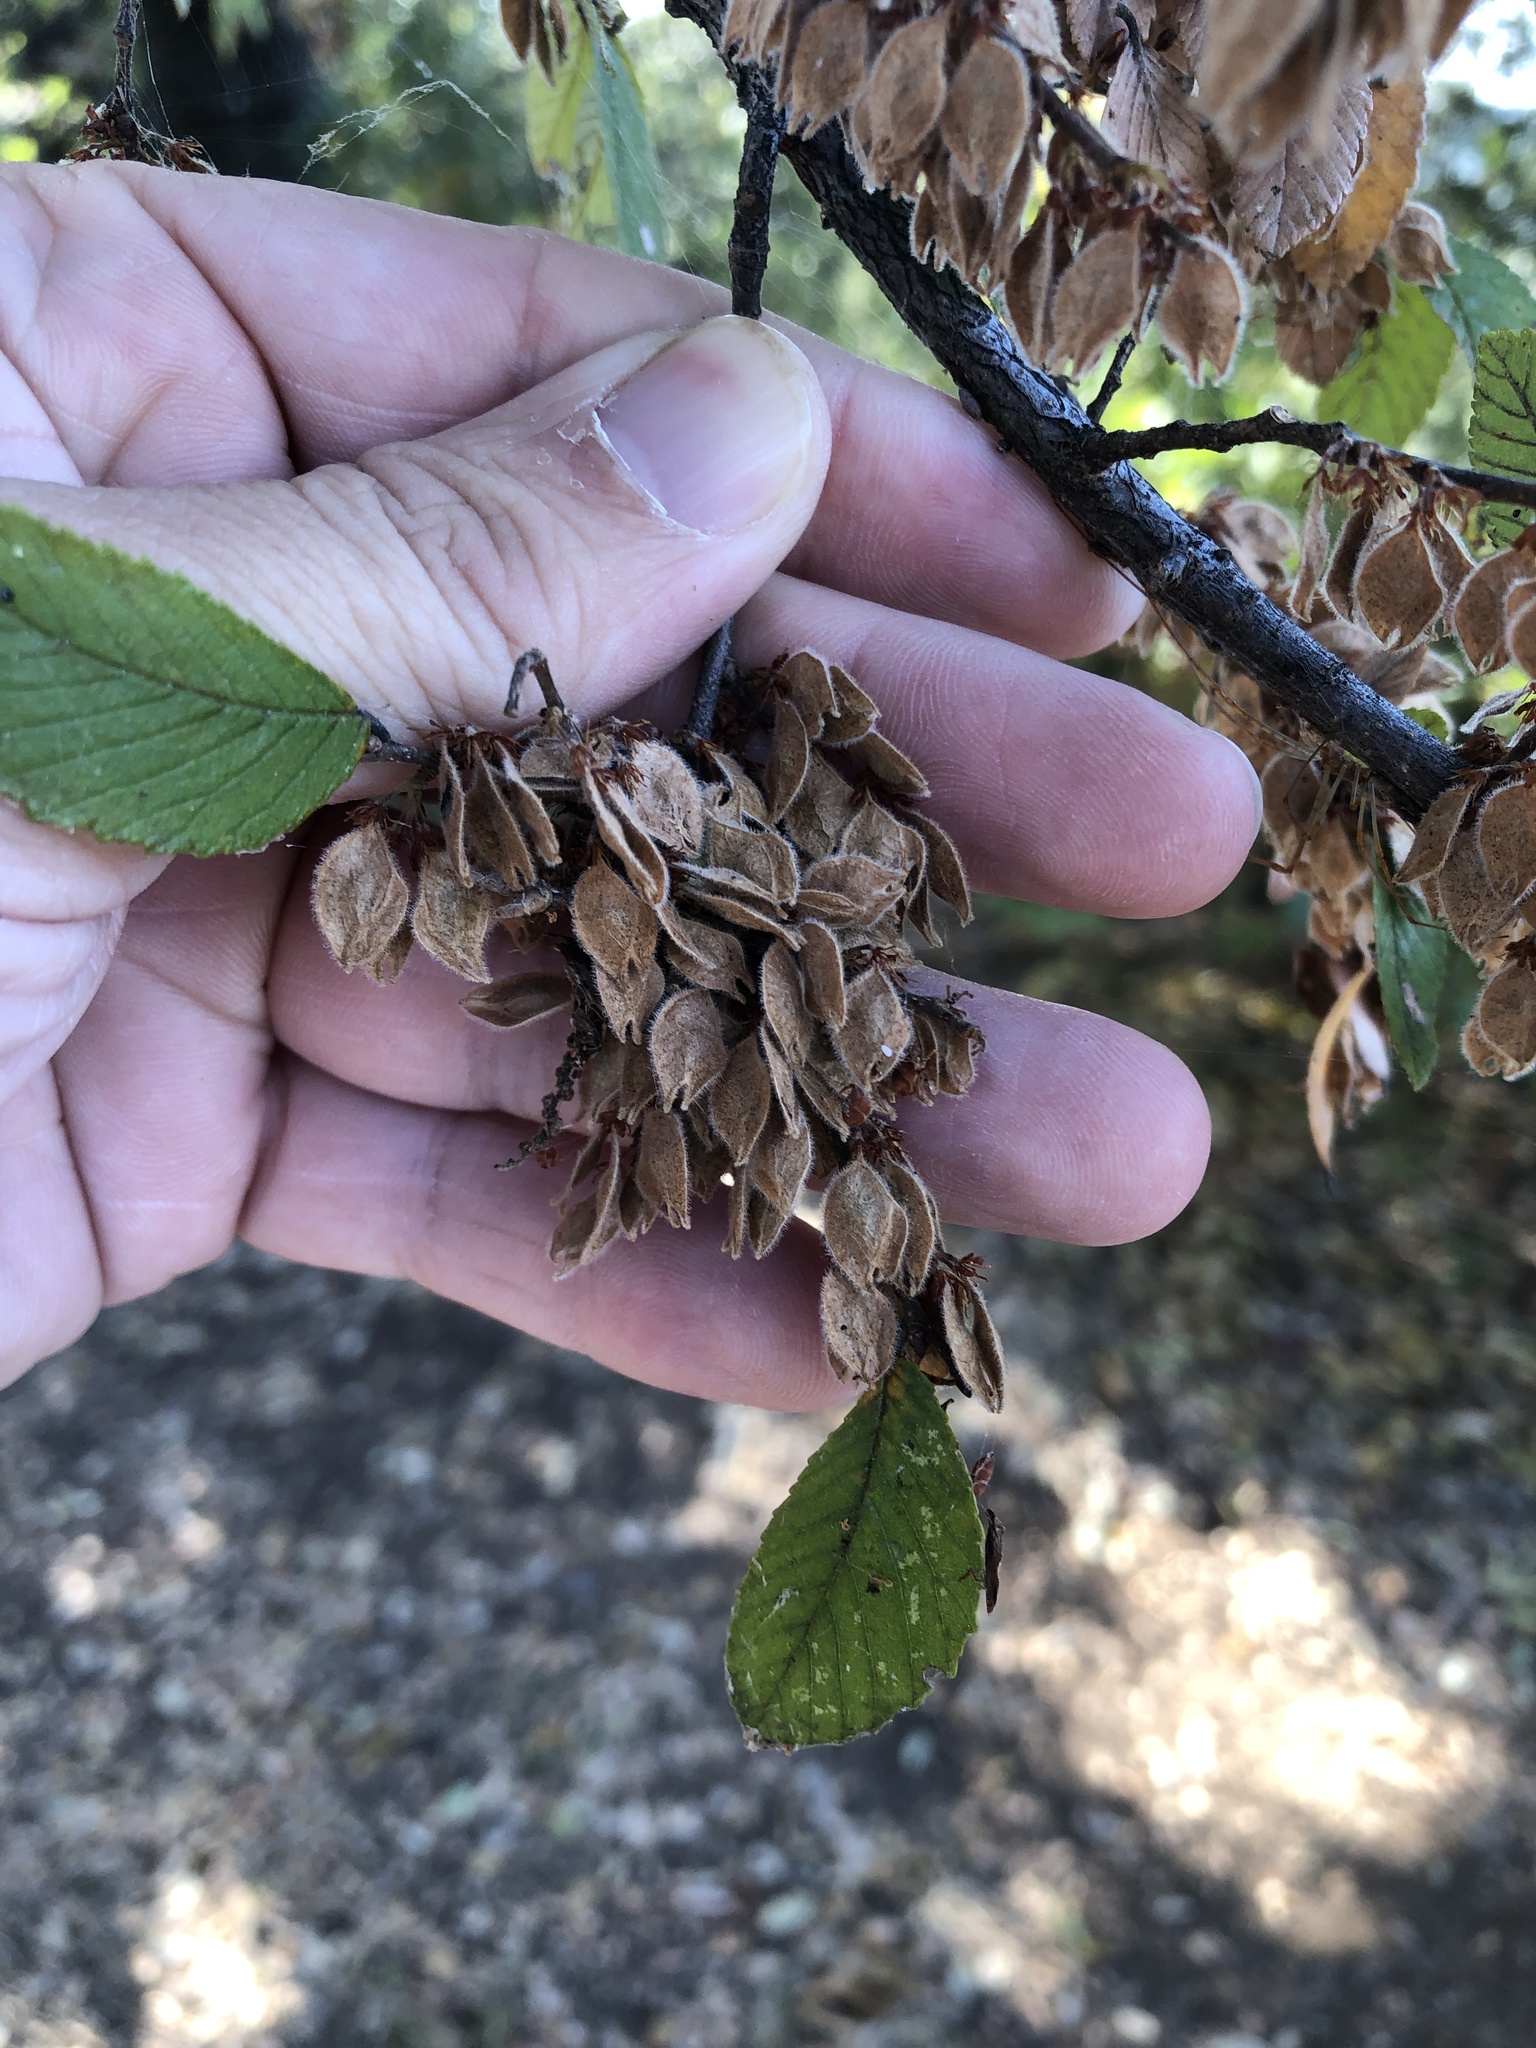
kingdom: Plantae
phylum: Tracheophyta
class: Magnoliopsida
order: Rosales
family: Ulmaceae
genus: Ulmus
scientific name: Ulmus crassifolia
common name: Basket elm
